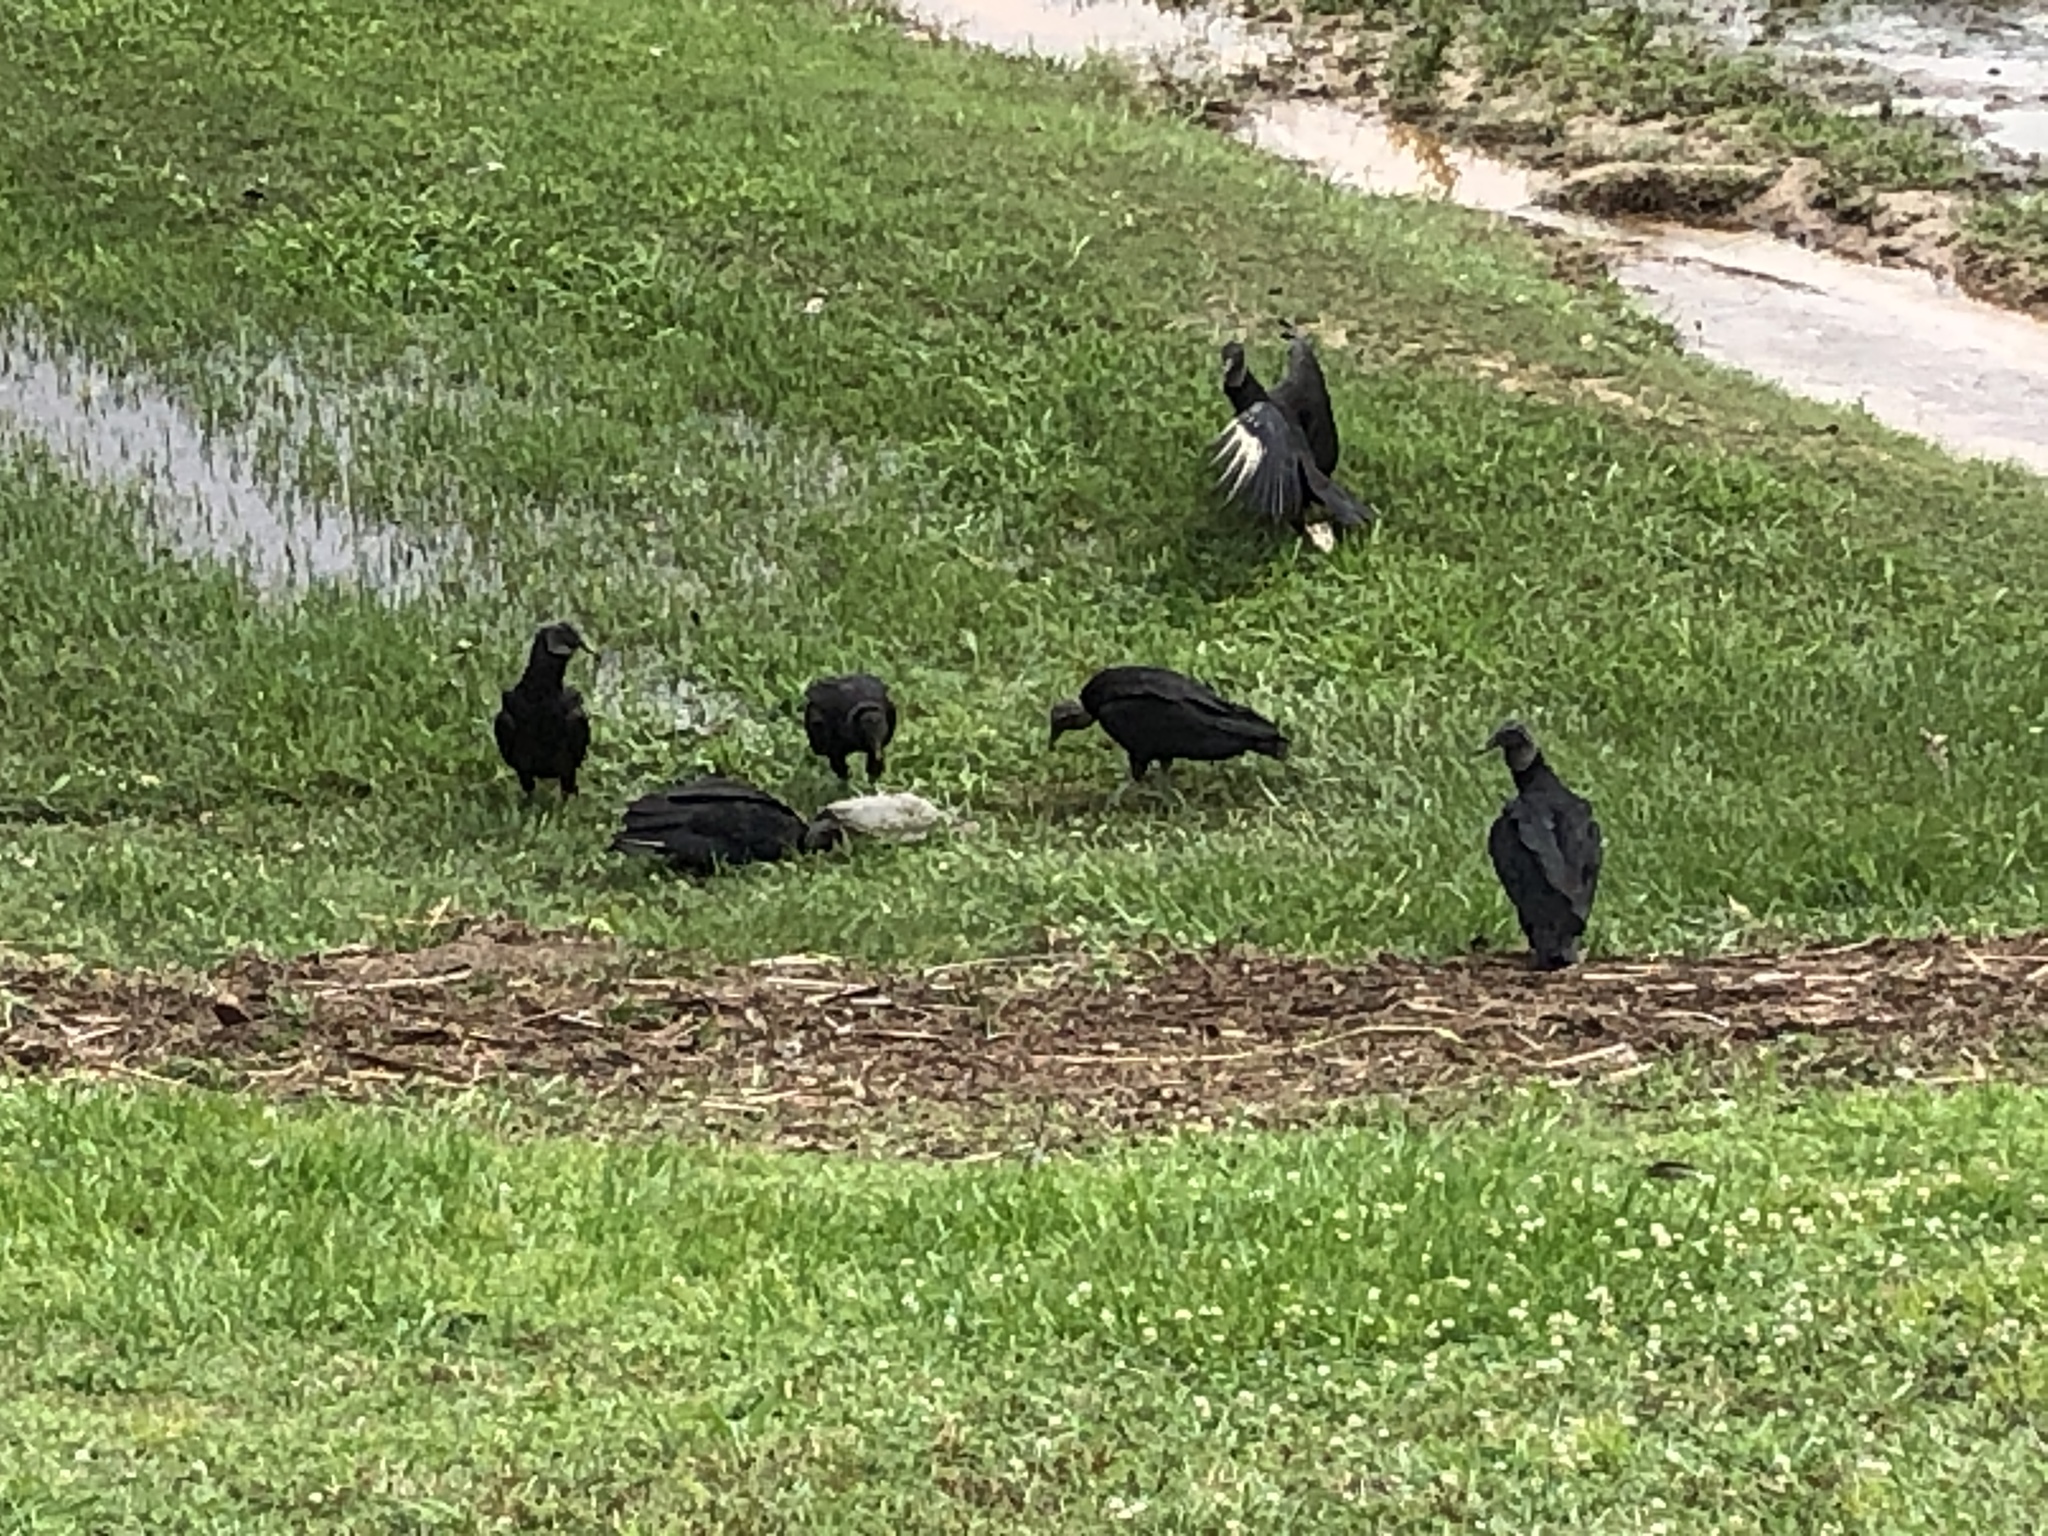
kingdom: Animalia
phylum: Chordata
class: Aves
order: Accipitriformes
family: Cathartidae
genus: Coragyps
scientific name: Coragyps atratus
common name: Black vulture
